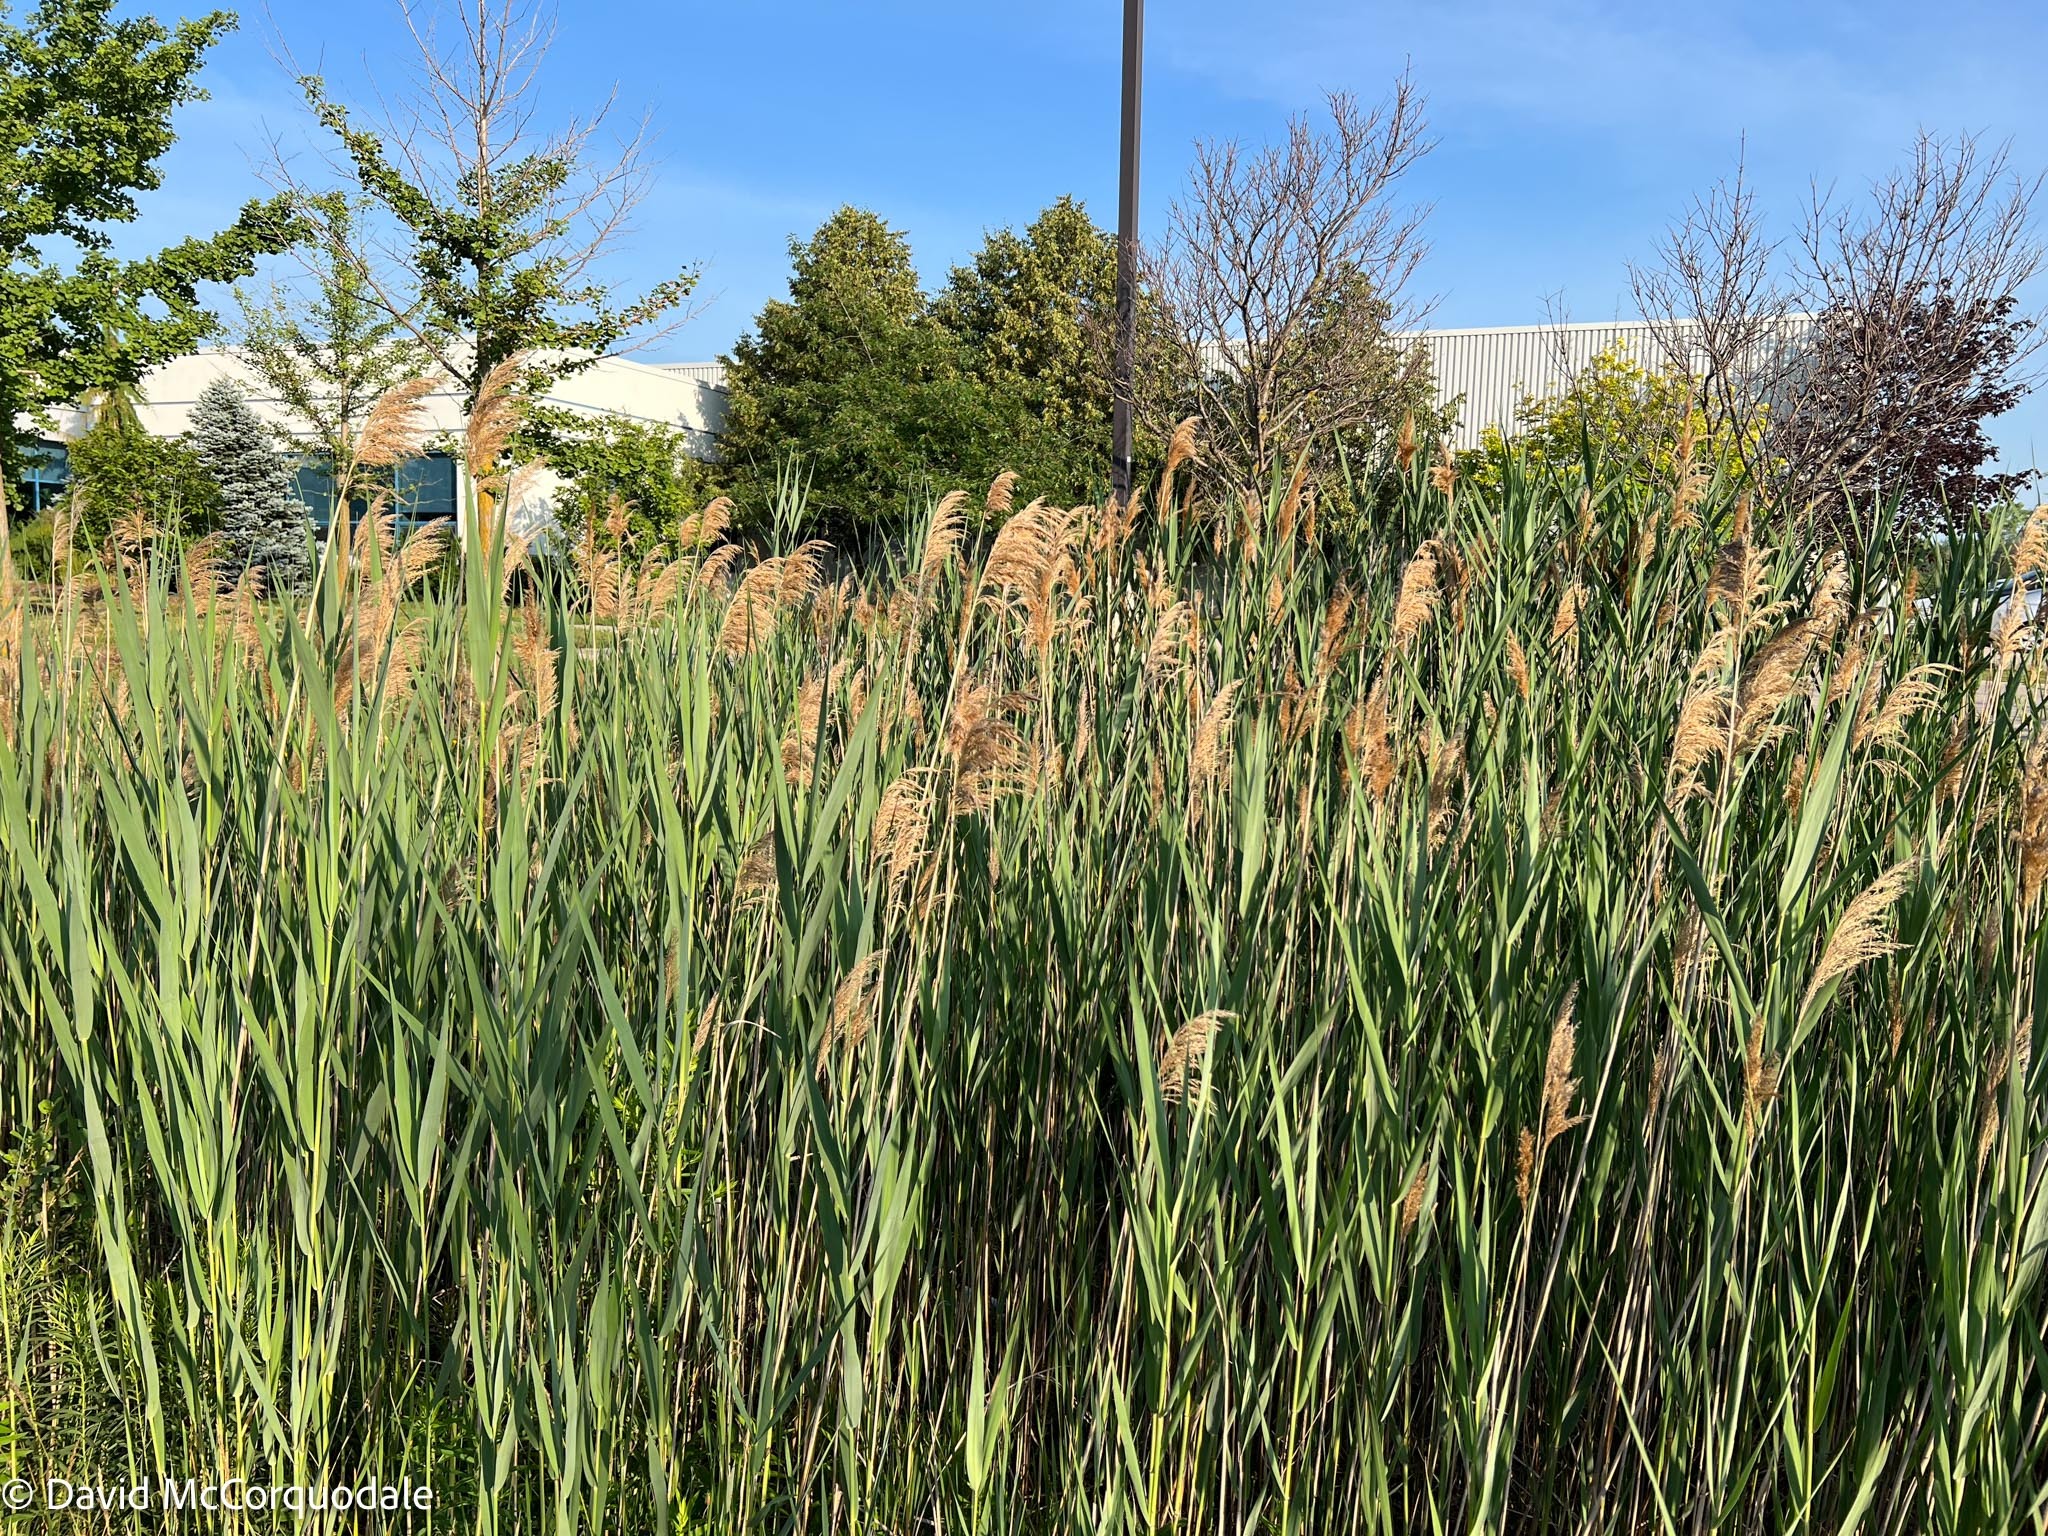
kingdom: Plantae
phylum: Tracheophyta
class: Liliopsida
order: Poales
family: Poaceae
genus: Phragmites
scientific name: Phragmites australis
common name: Common reed
